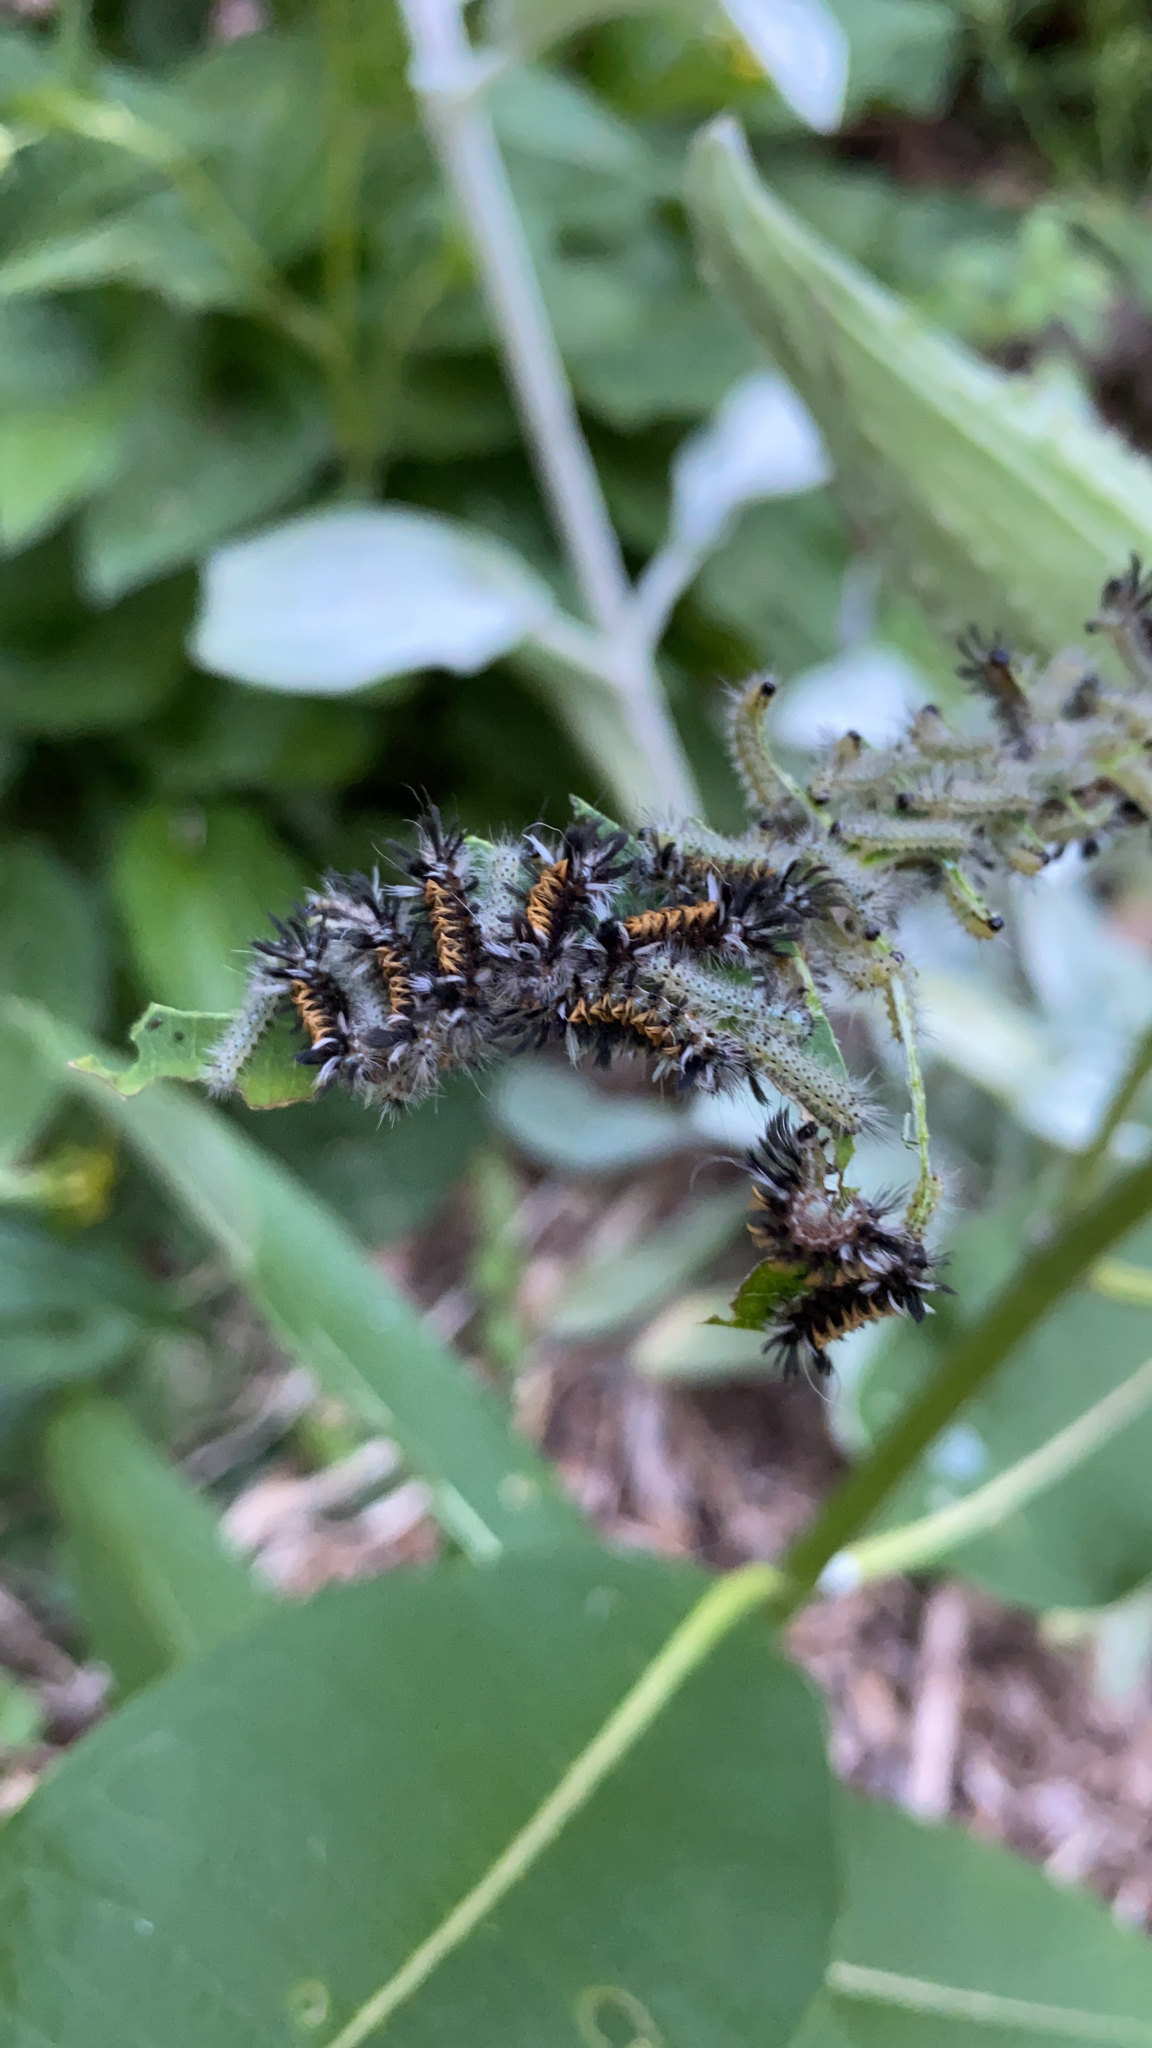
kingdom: Animalia
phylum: Arthropoda
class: Insecta
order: Lepidoptera
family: Erebidae
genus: Euchaetes
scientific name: Euchaetes egle
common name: Milkweed tussock moth
